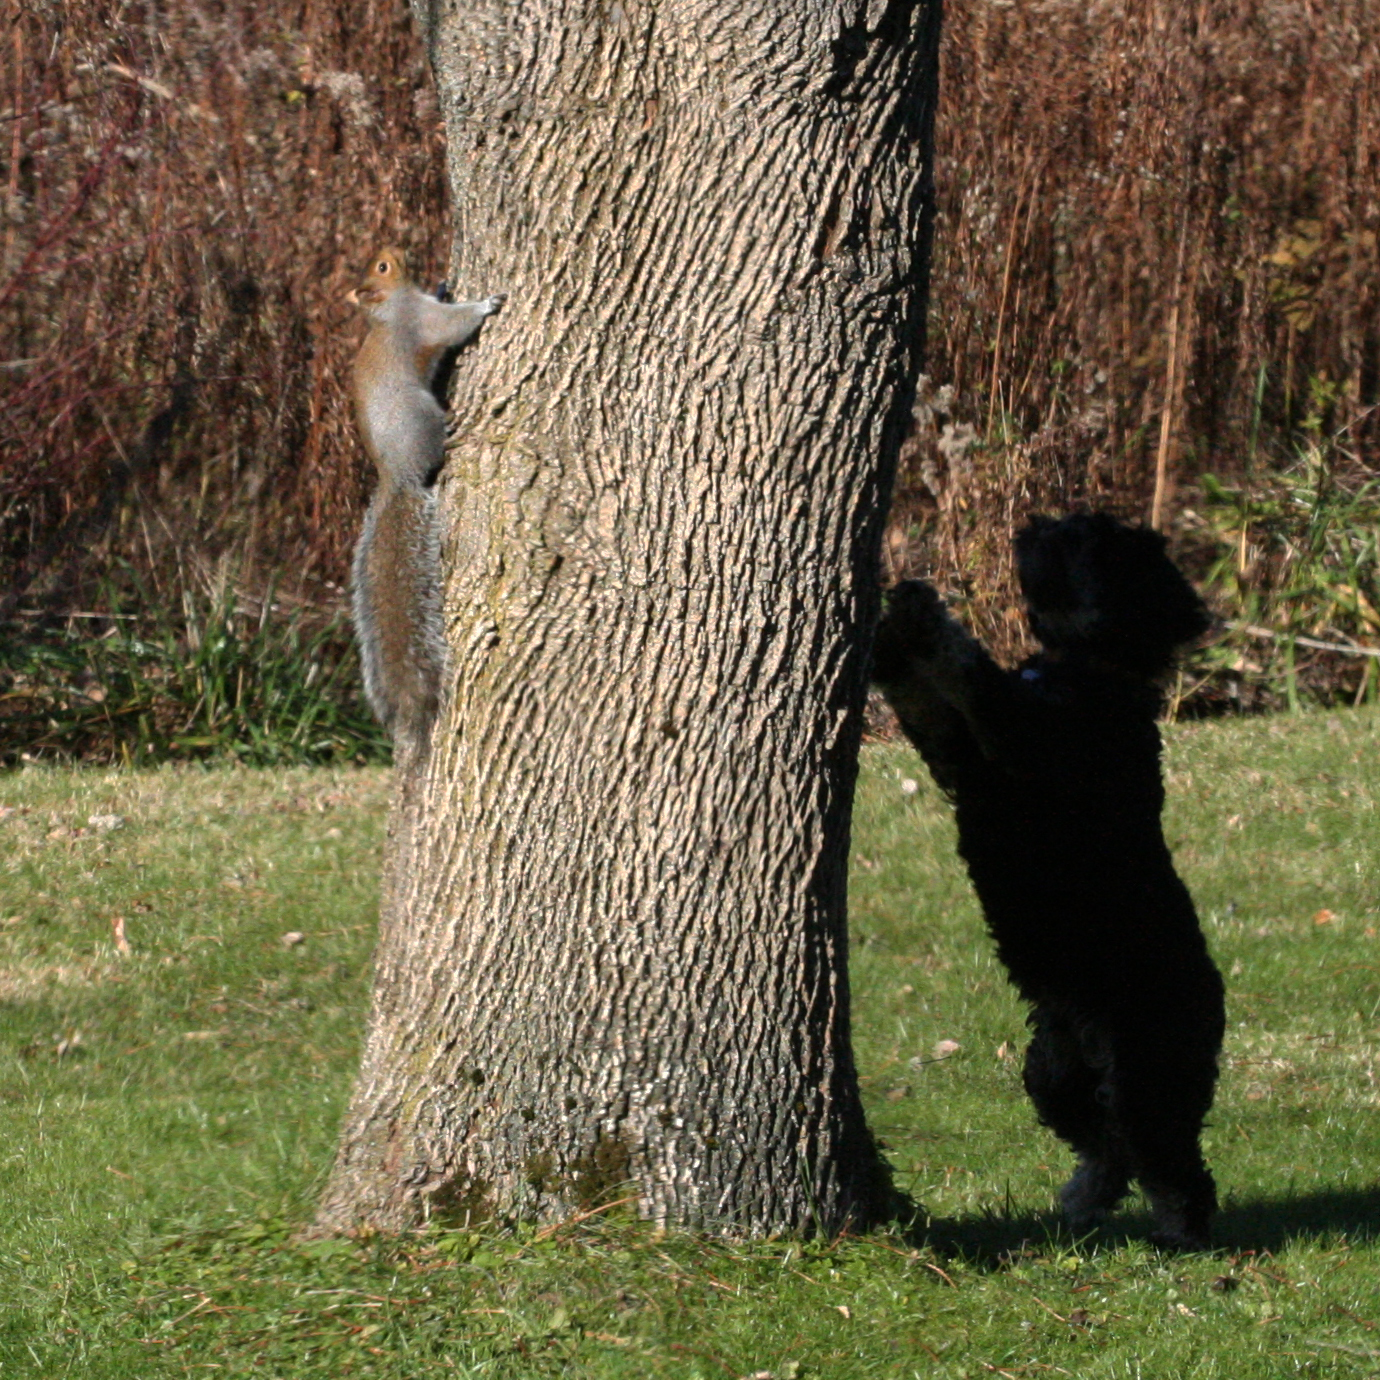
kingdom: Animalia
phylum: Chordata
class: Mammalia
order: Rodentia
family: Sciuridae
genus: Sciurus
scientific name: Sciurus carolinensis
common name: Eastern gray squirrel
